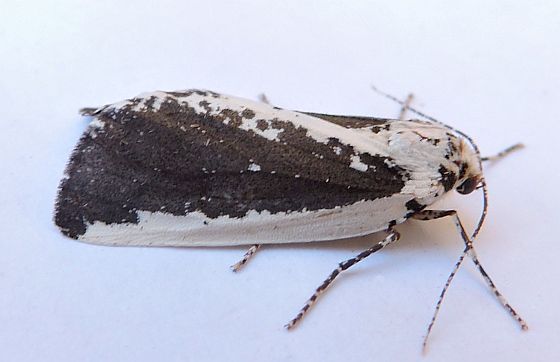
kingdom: Animalia
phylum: Arthropoda
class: Insecta
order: Lepidoptera
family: Geometridae
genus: Eucaterva
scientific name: Eucaterva variaria
